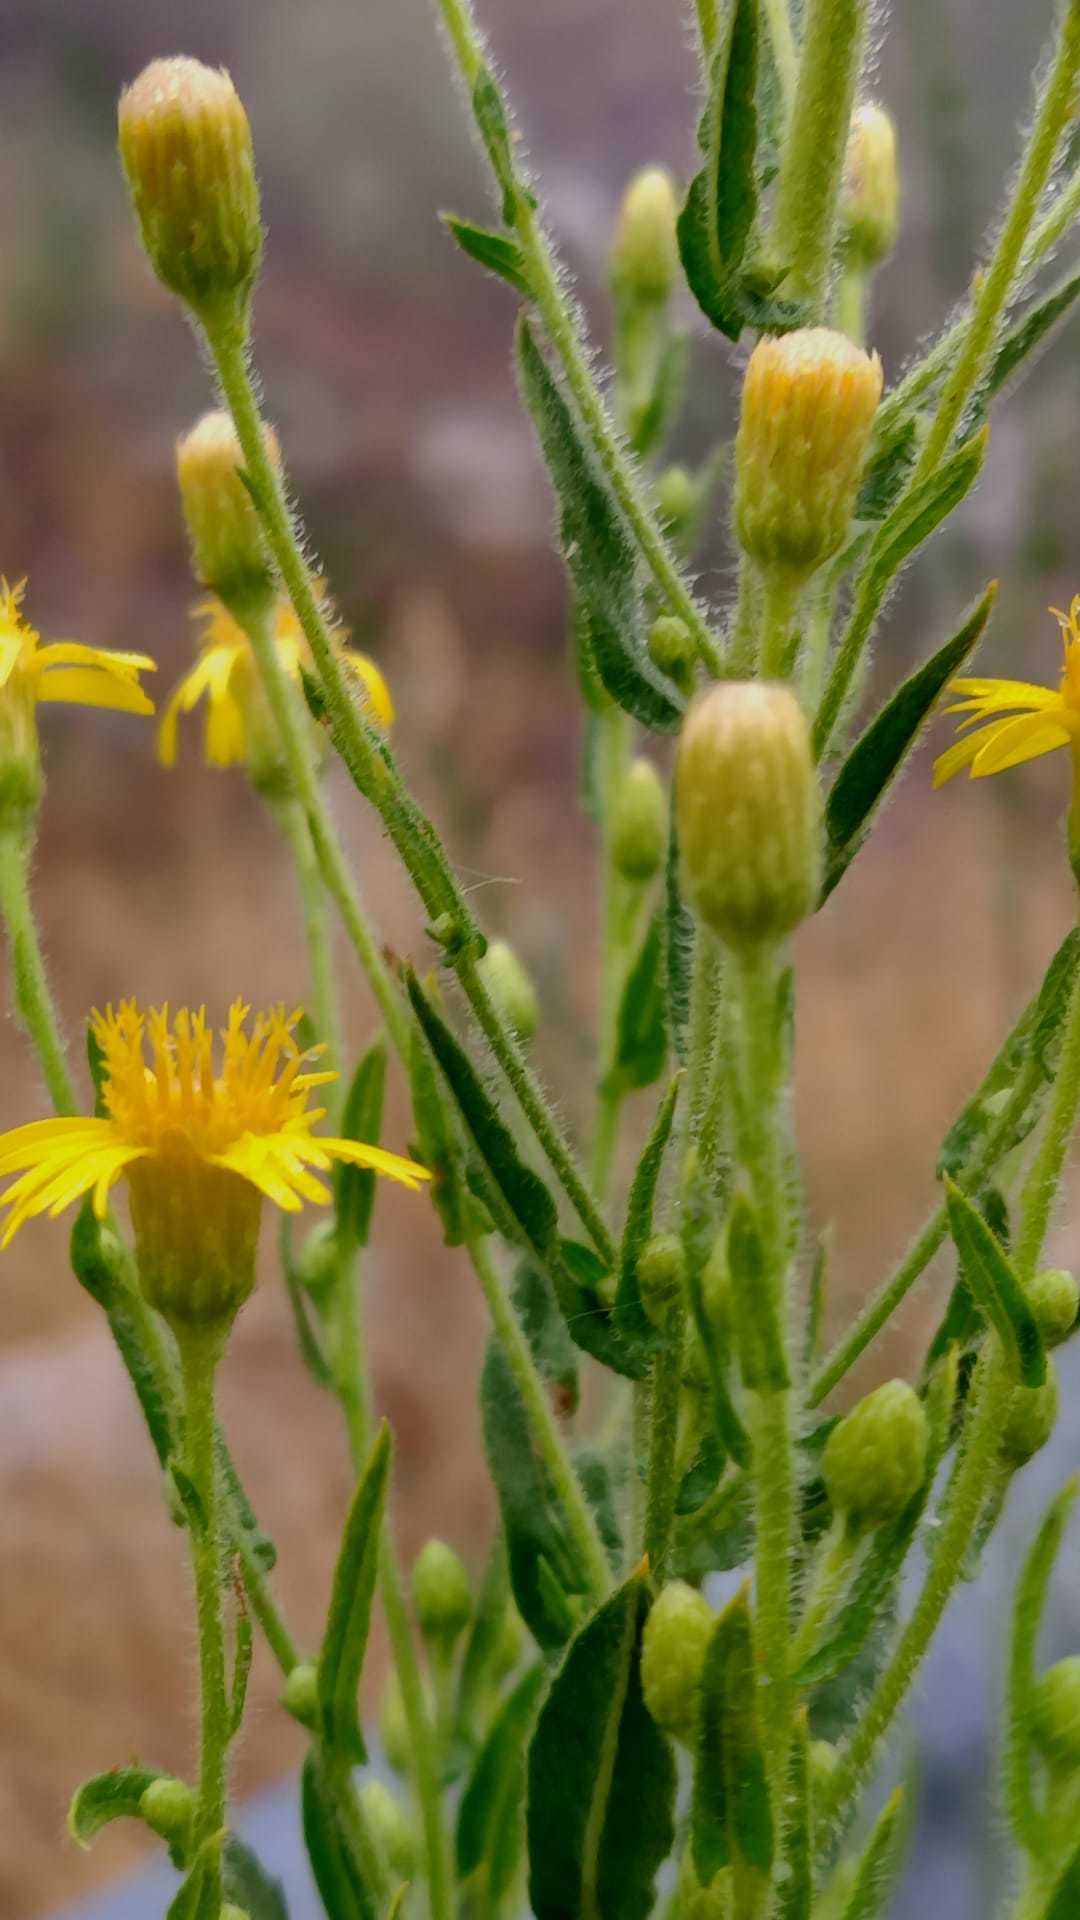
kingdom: Plantae
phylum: Tracheophyta
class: Magnoliopsida
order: Asterales
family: Asteraceae
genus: Dittrichia
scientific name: Dittrichia viscosa
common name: Woody fleabane
